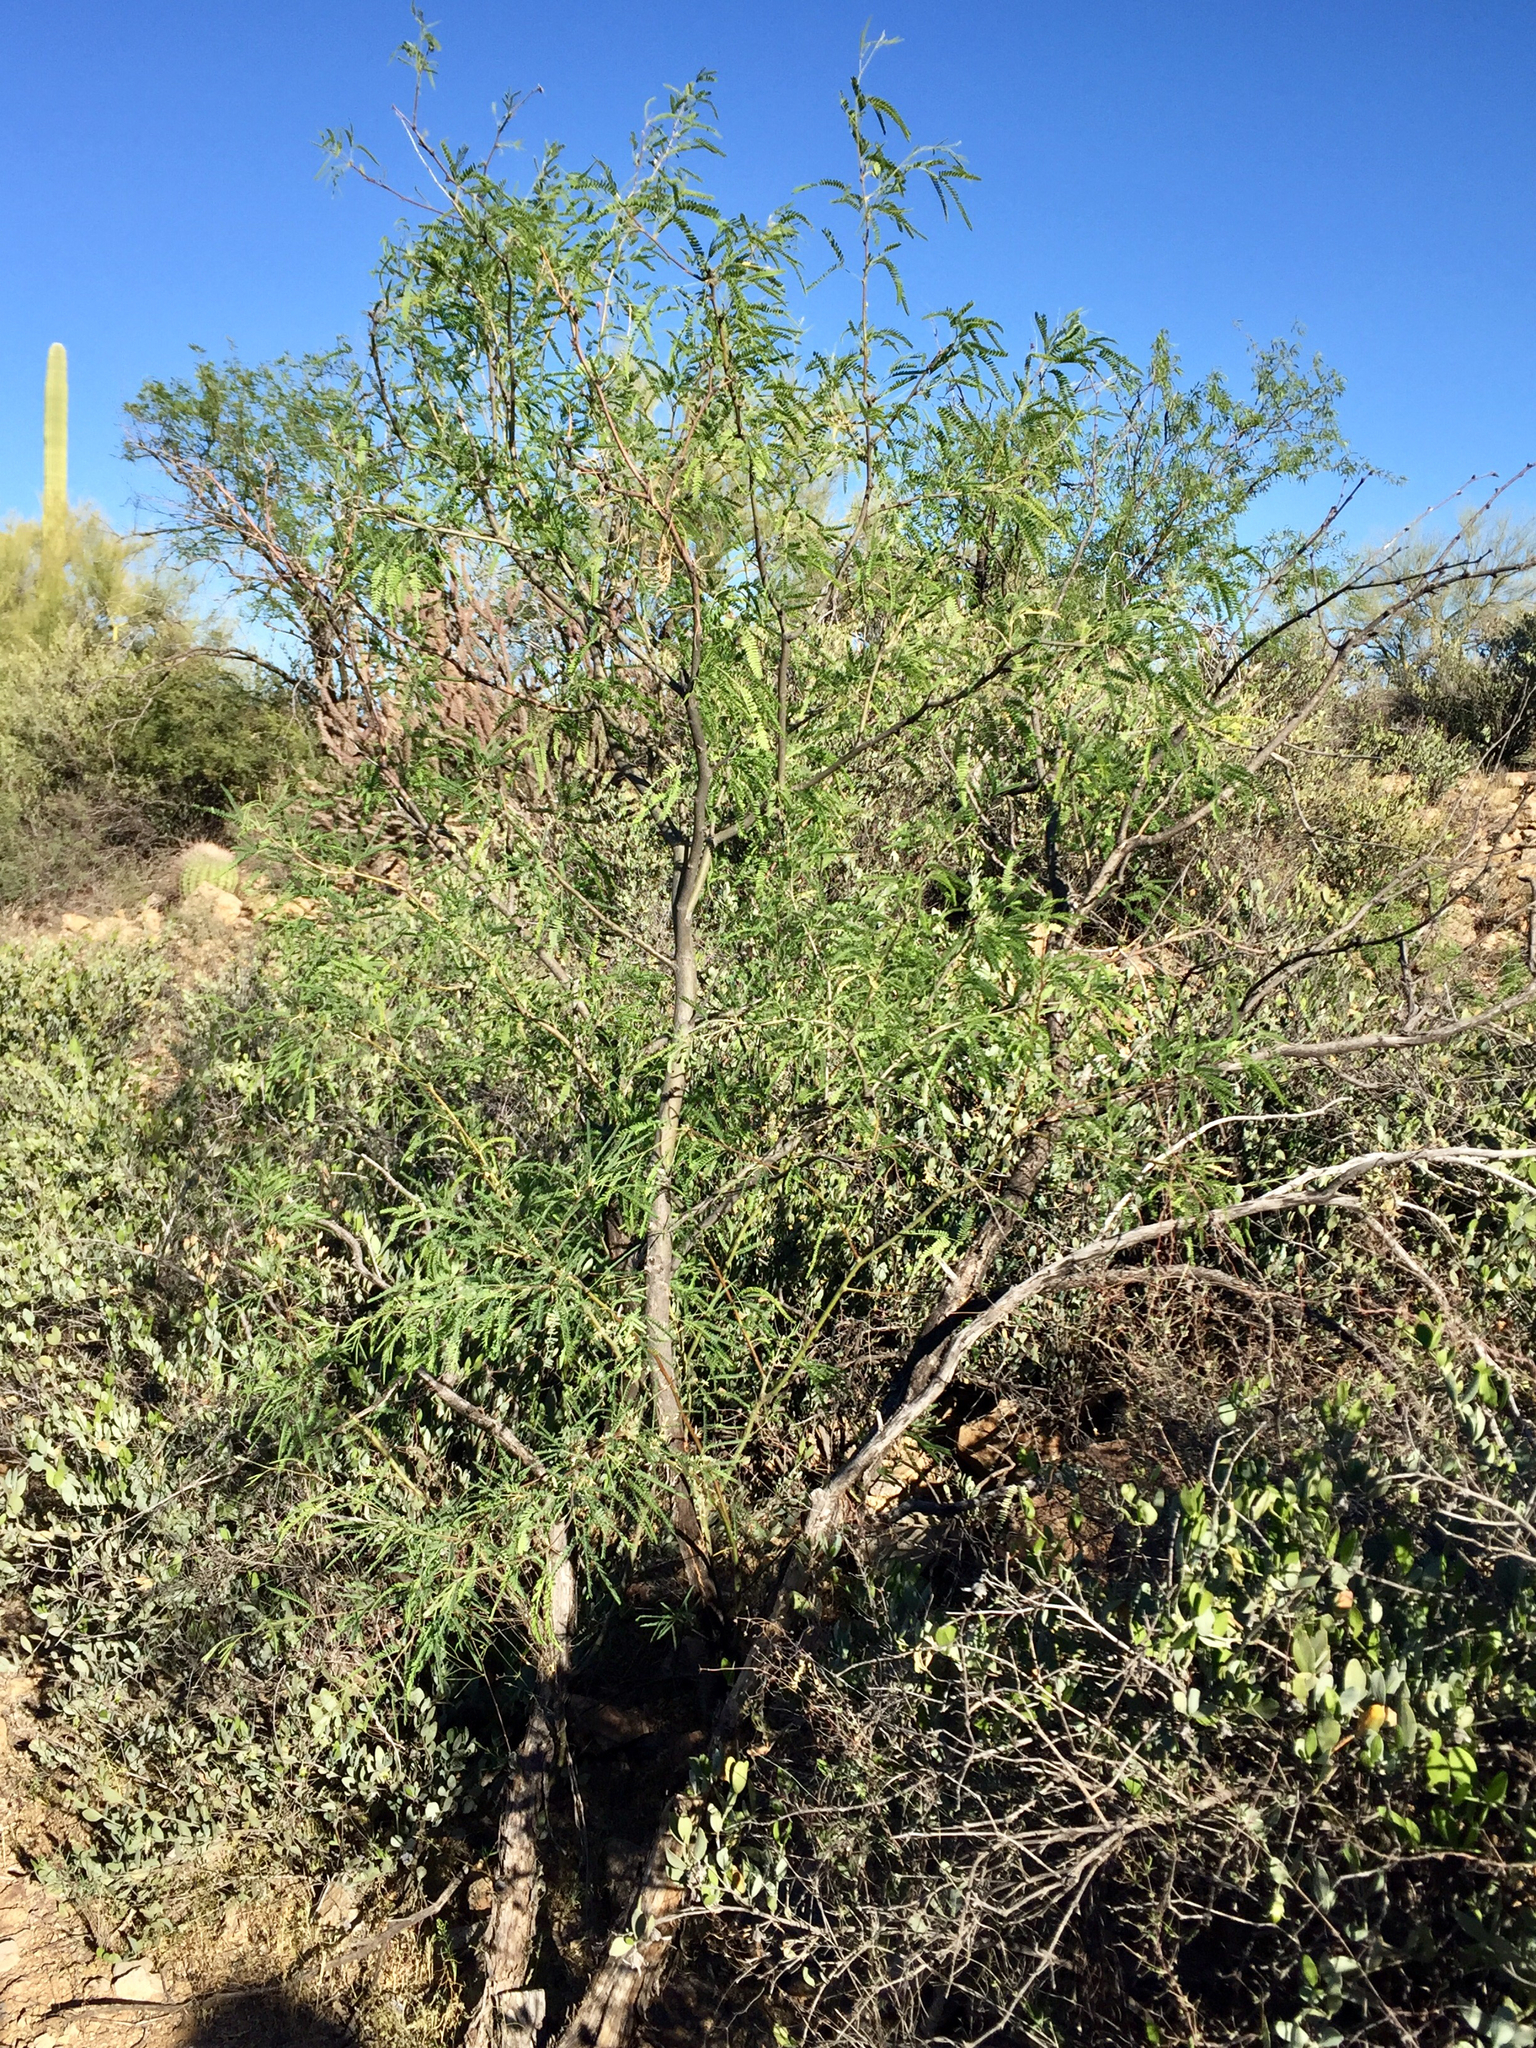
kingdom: Plantae
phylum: Tracheophyta
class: Magnoliopsida
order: Fabales
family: Fabaceae
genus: Prosopis
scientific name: Prosopis velutina
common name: Velvet mesquite
